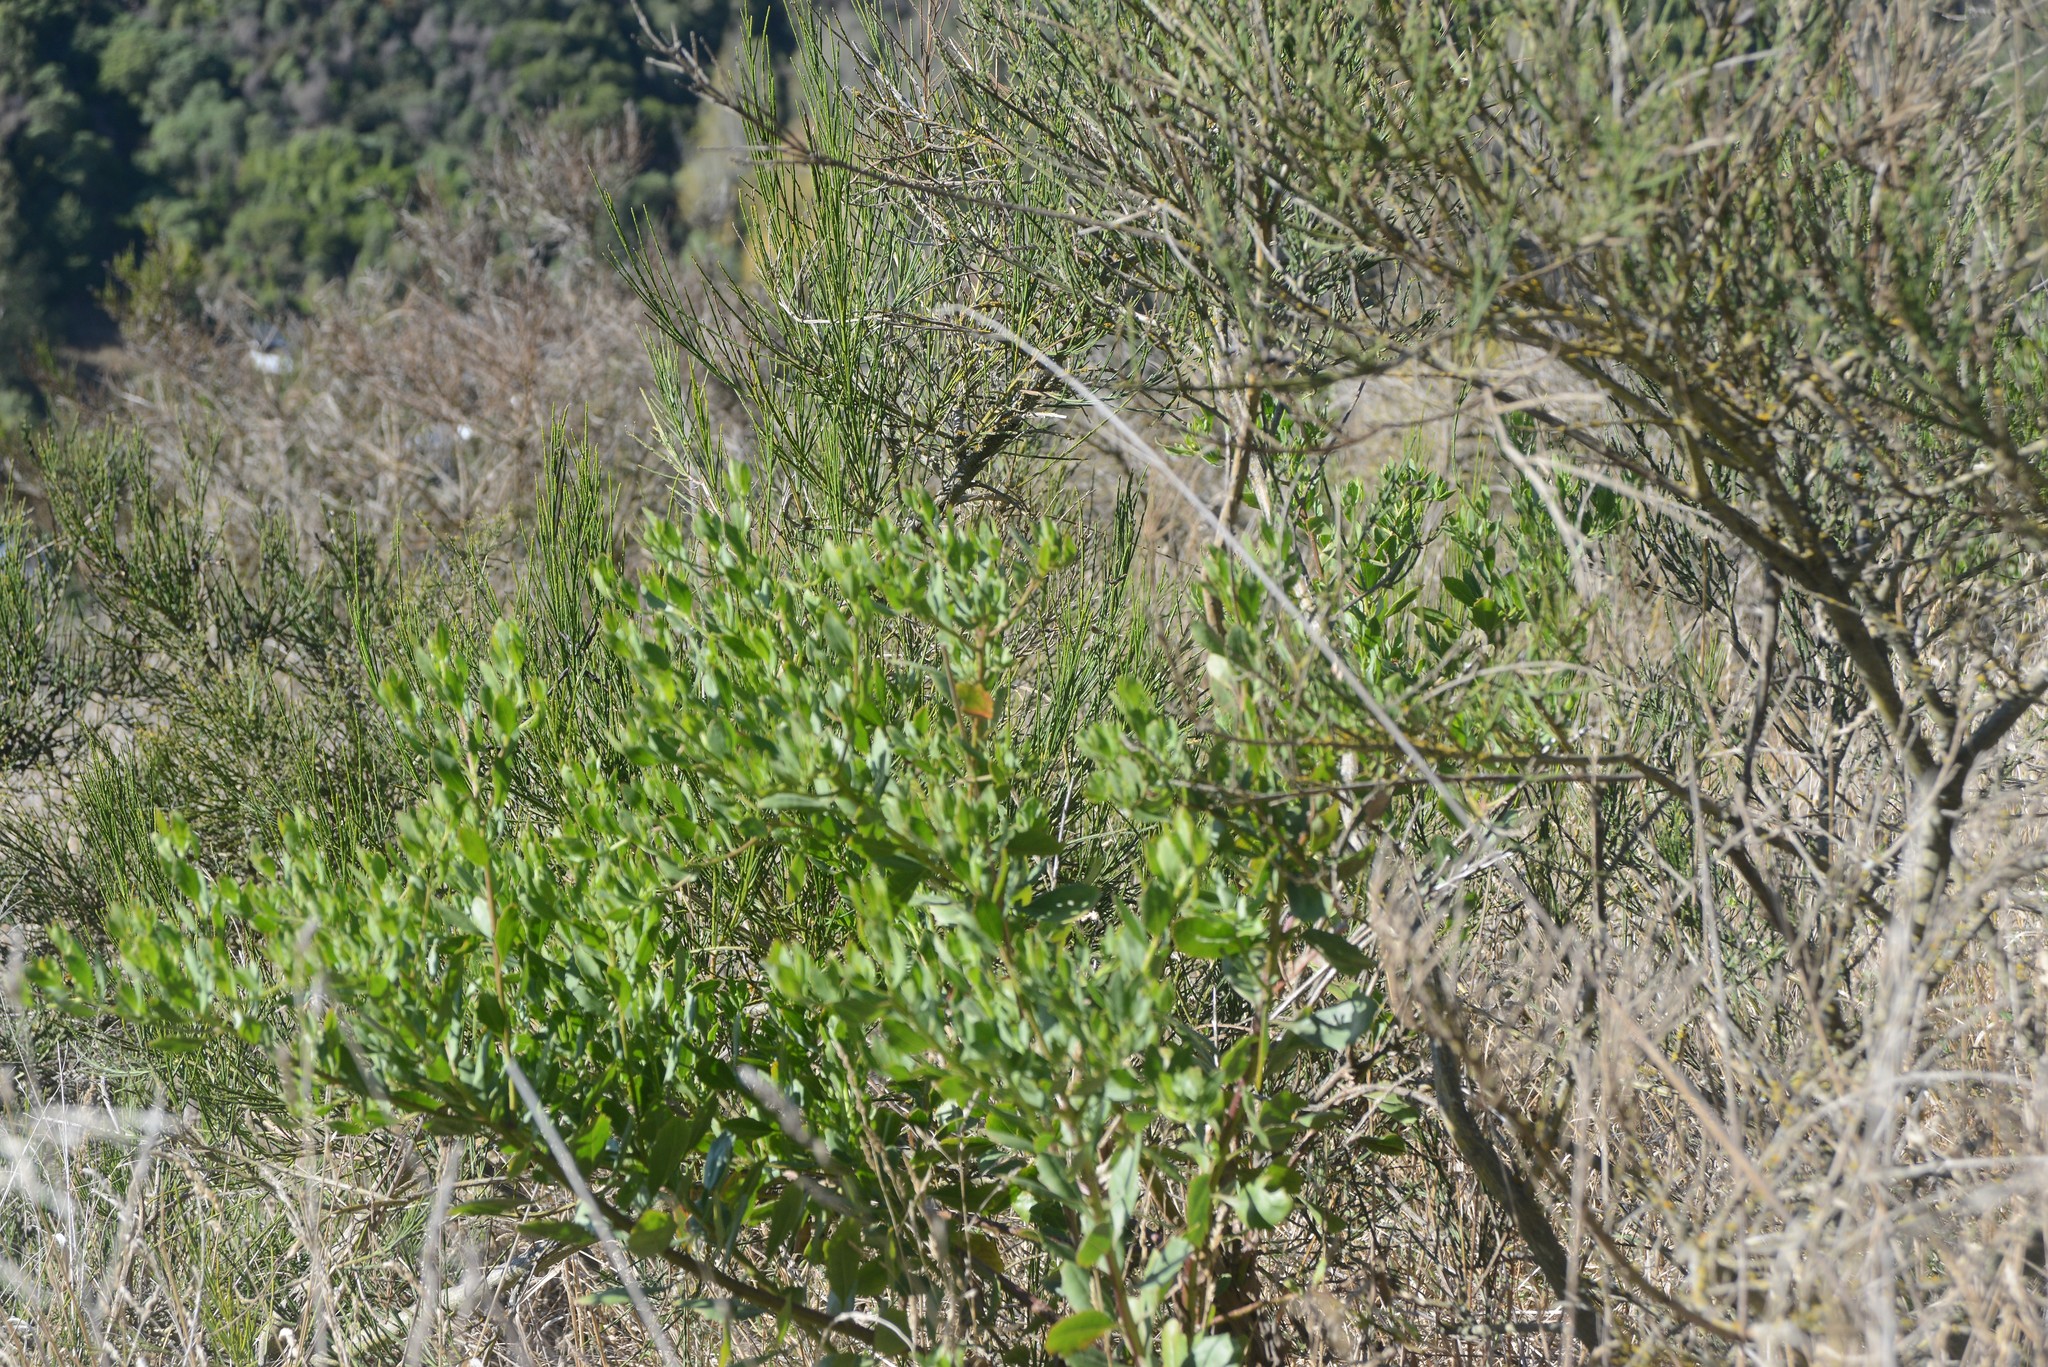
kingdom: Plantae
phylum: Tracheophyta
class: Magnoliopsida
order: Asterales
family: Asteraceae
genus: Osteospermum
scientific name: Osteospermum moniliferum
